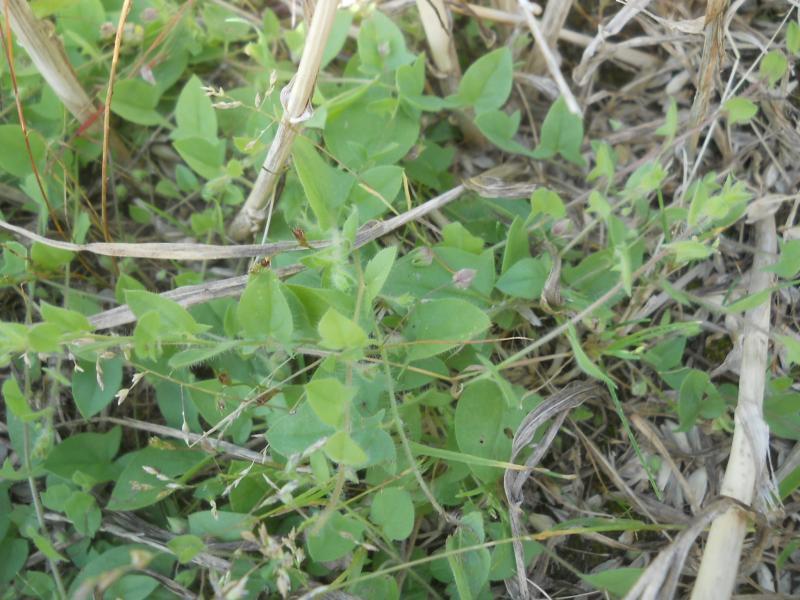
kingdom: Plantae
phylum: Tracheophyta
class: Magnoliopsida
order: Lamiales
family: Plantaginaceae
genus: Kickxia
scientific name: Kickxia elatine
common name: Sharp-leaved fluellen
